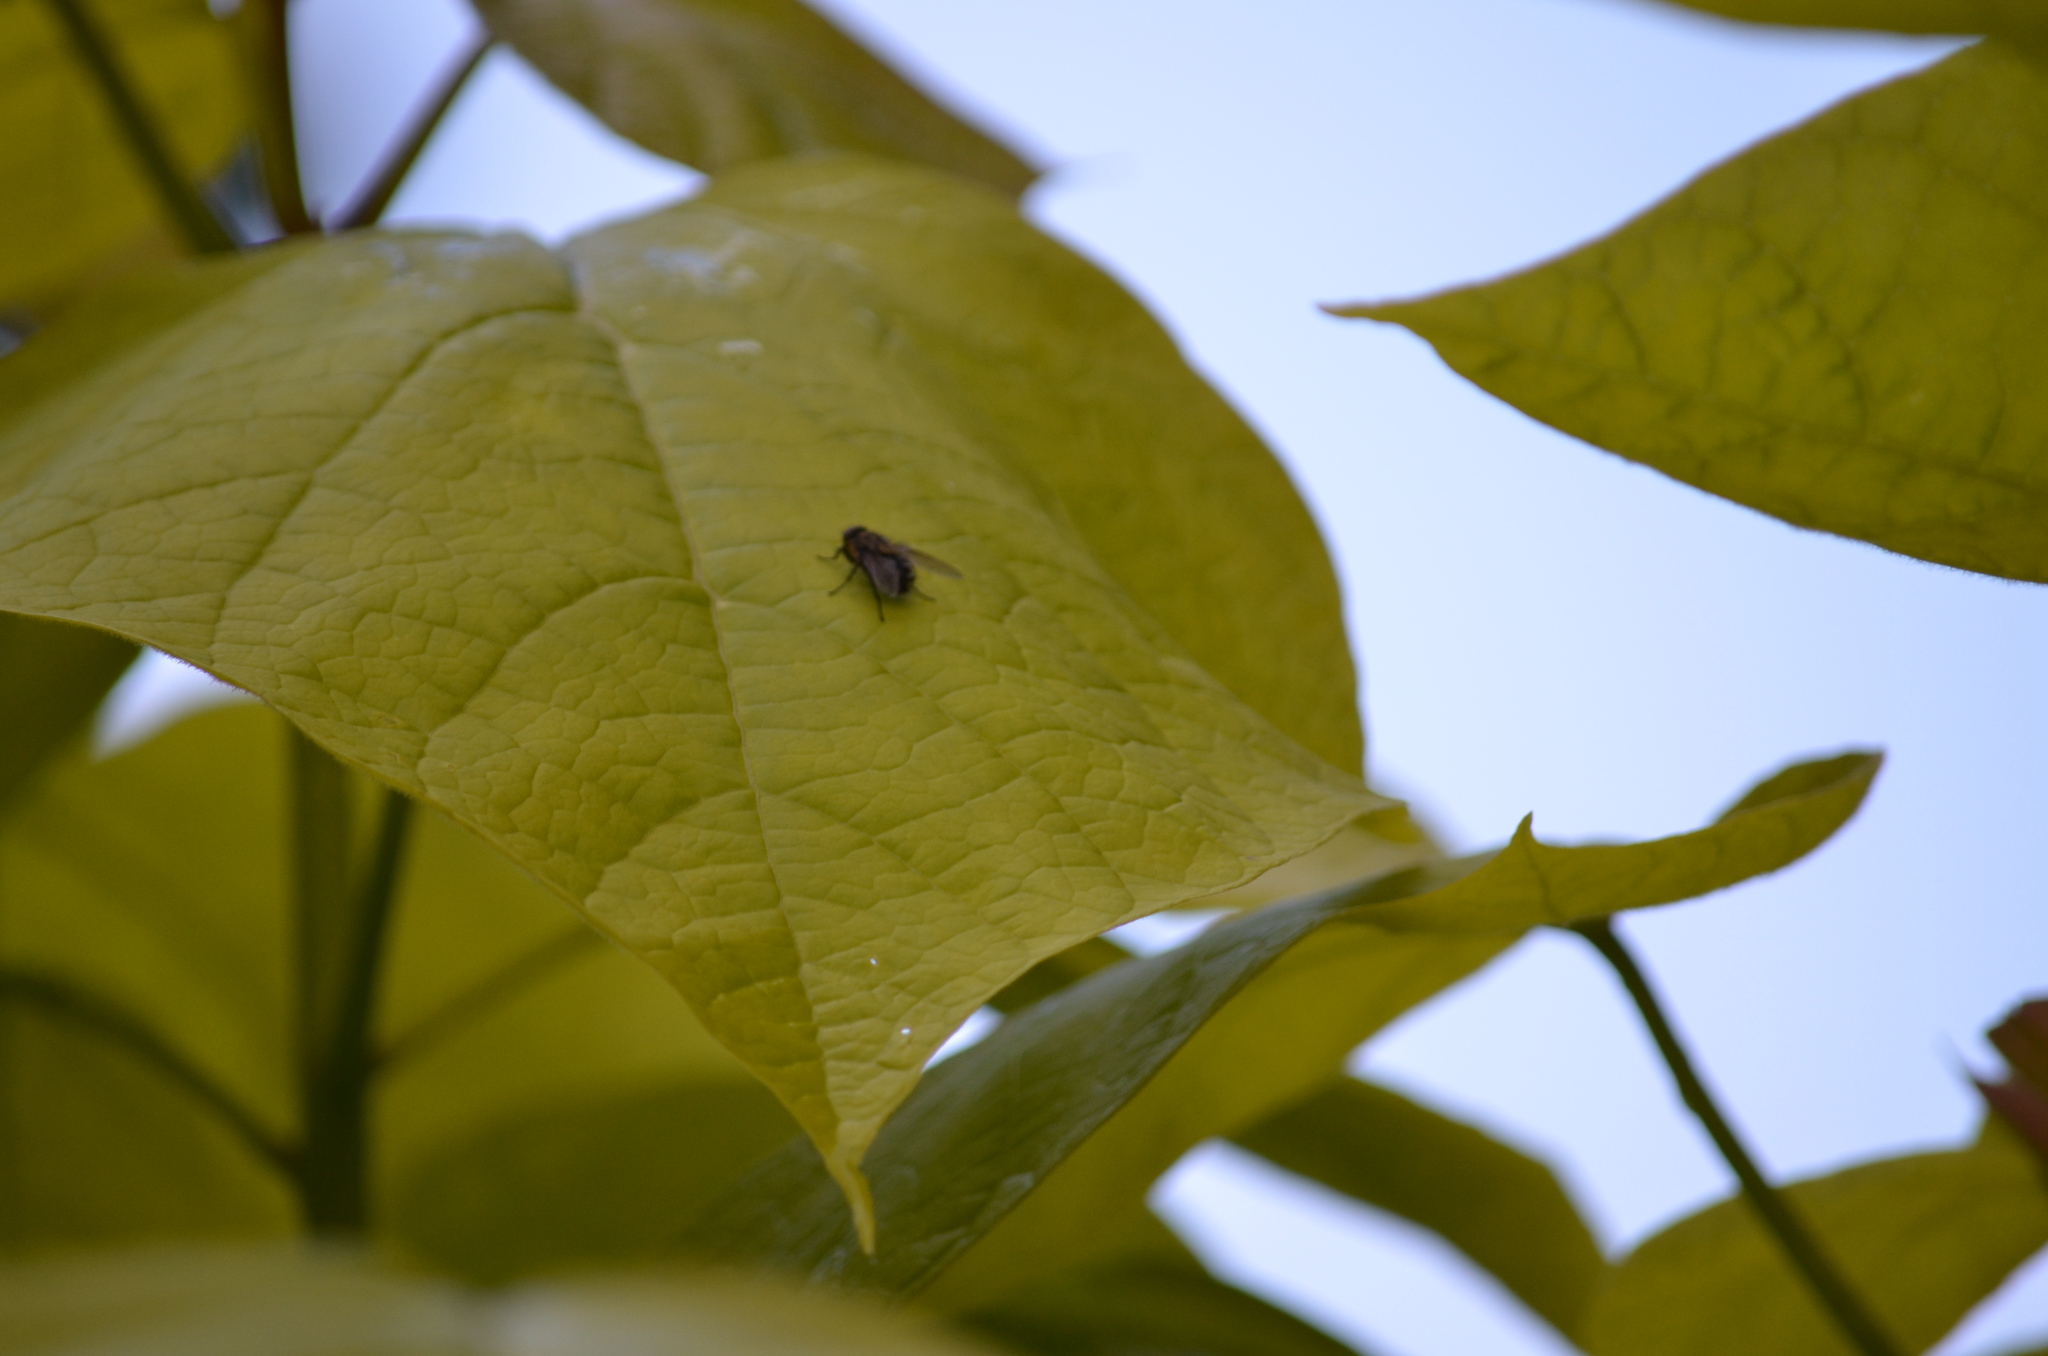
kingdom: Animalia
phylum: Arthropoda
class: Insecta
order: Diptera
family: Polleniidae
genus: Pollenia
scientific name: Pollenia
